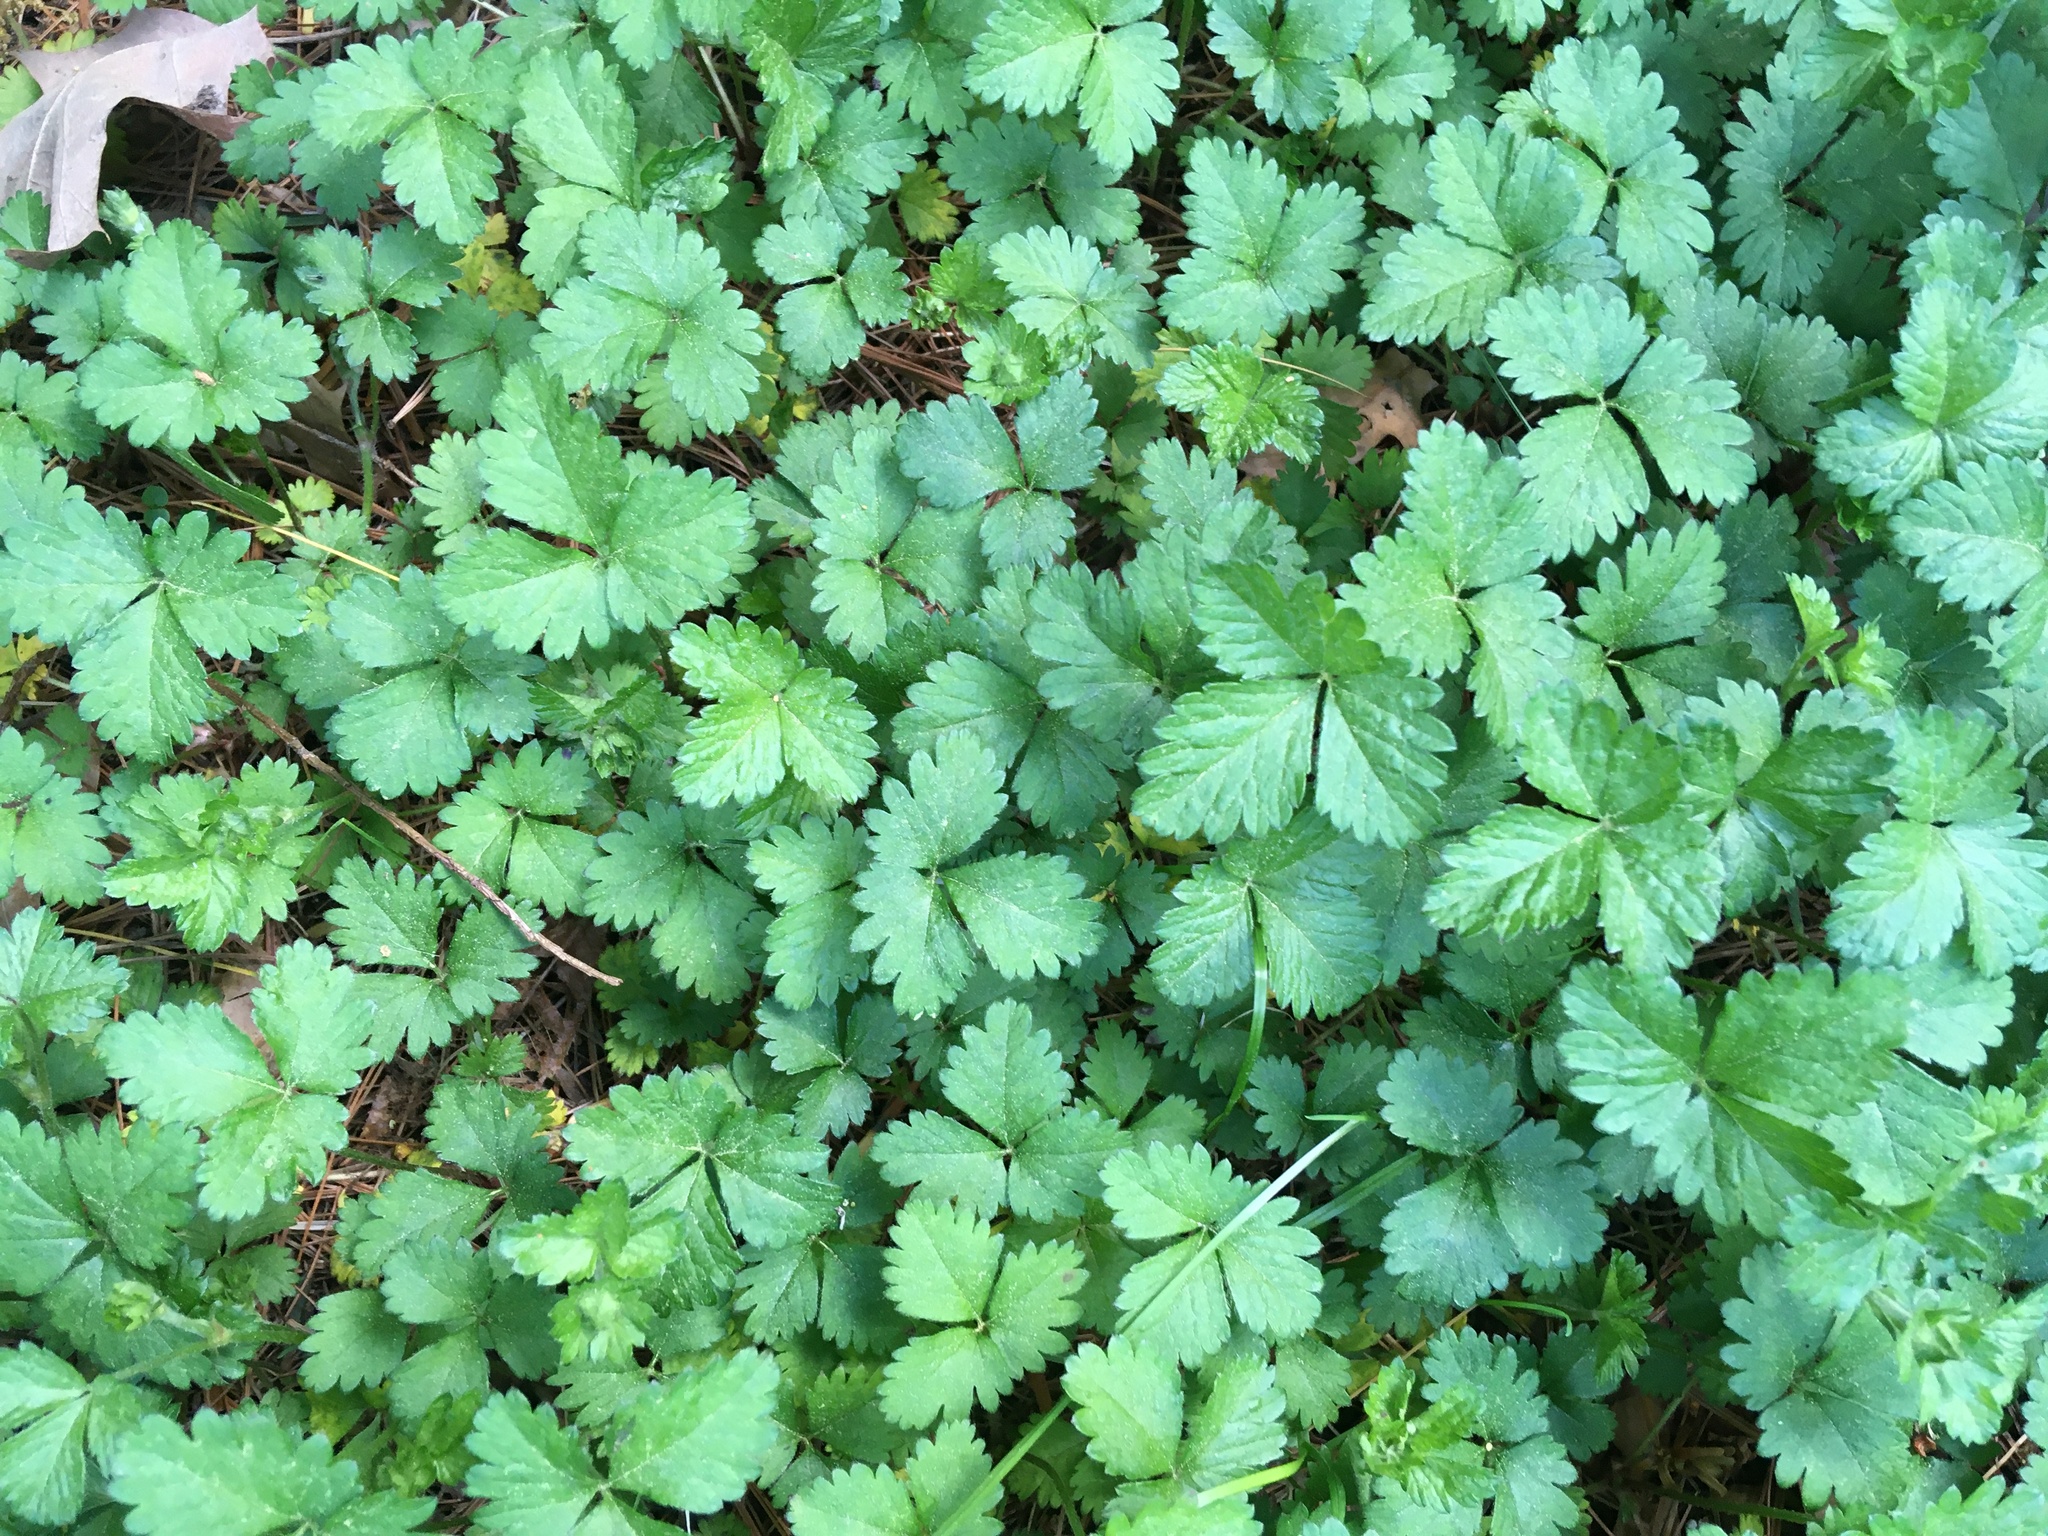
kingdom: Plantae
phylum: Tracheophyta
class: Magnoliopsida
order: Rosales
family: Rosaceae
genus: Potentilla
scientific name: Potentilla indica
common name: Yellow-flowered strawberry
